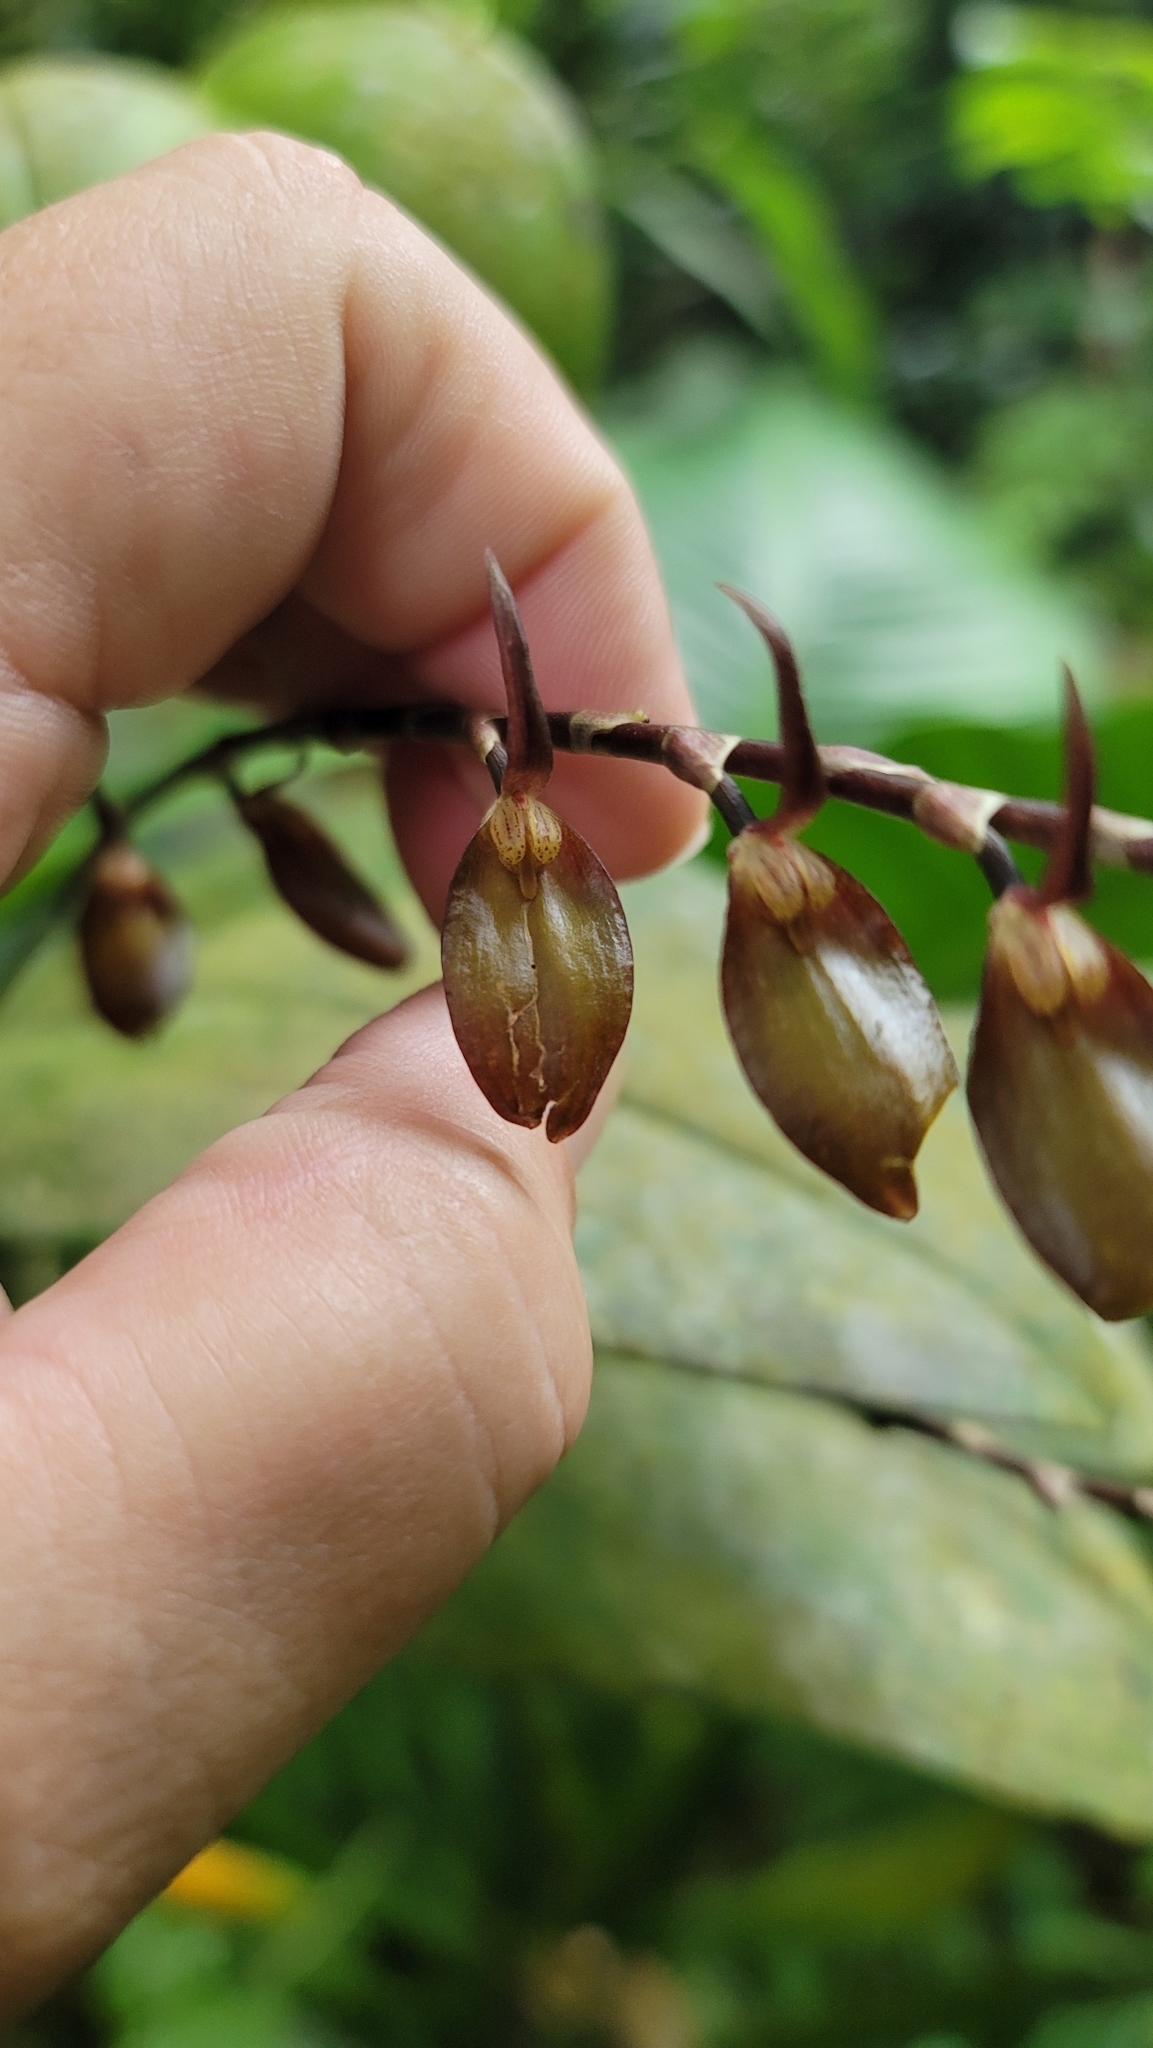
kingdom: Plantae
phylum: Tracheophyta
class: Liliopsida
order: Asparagales
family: Orchidaceae
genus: Stelis
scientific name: Stelis gigantea
